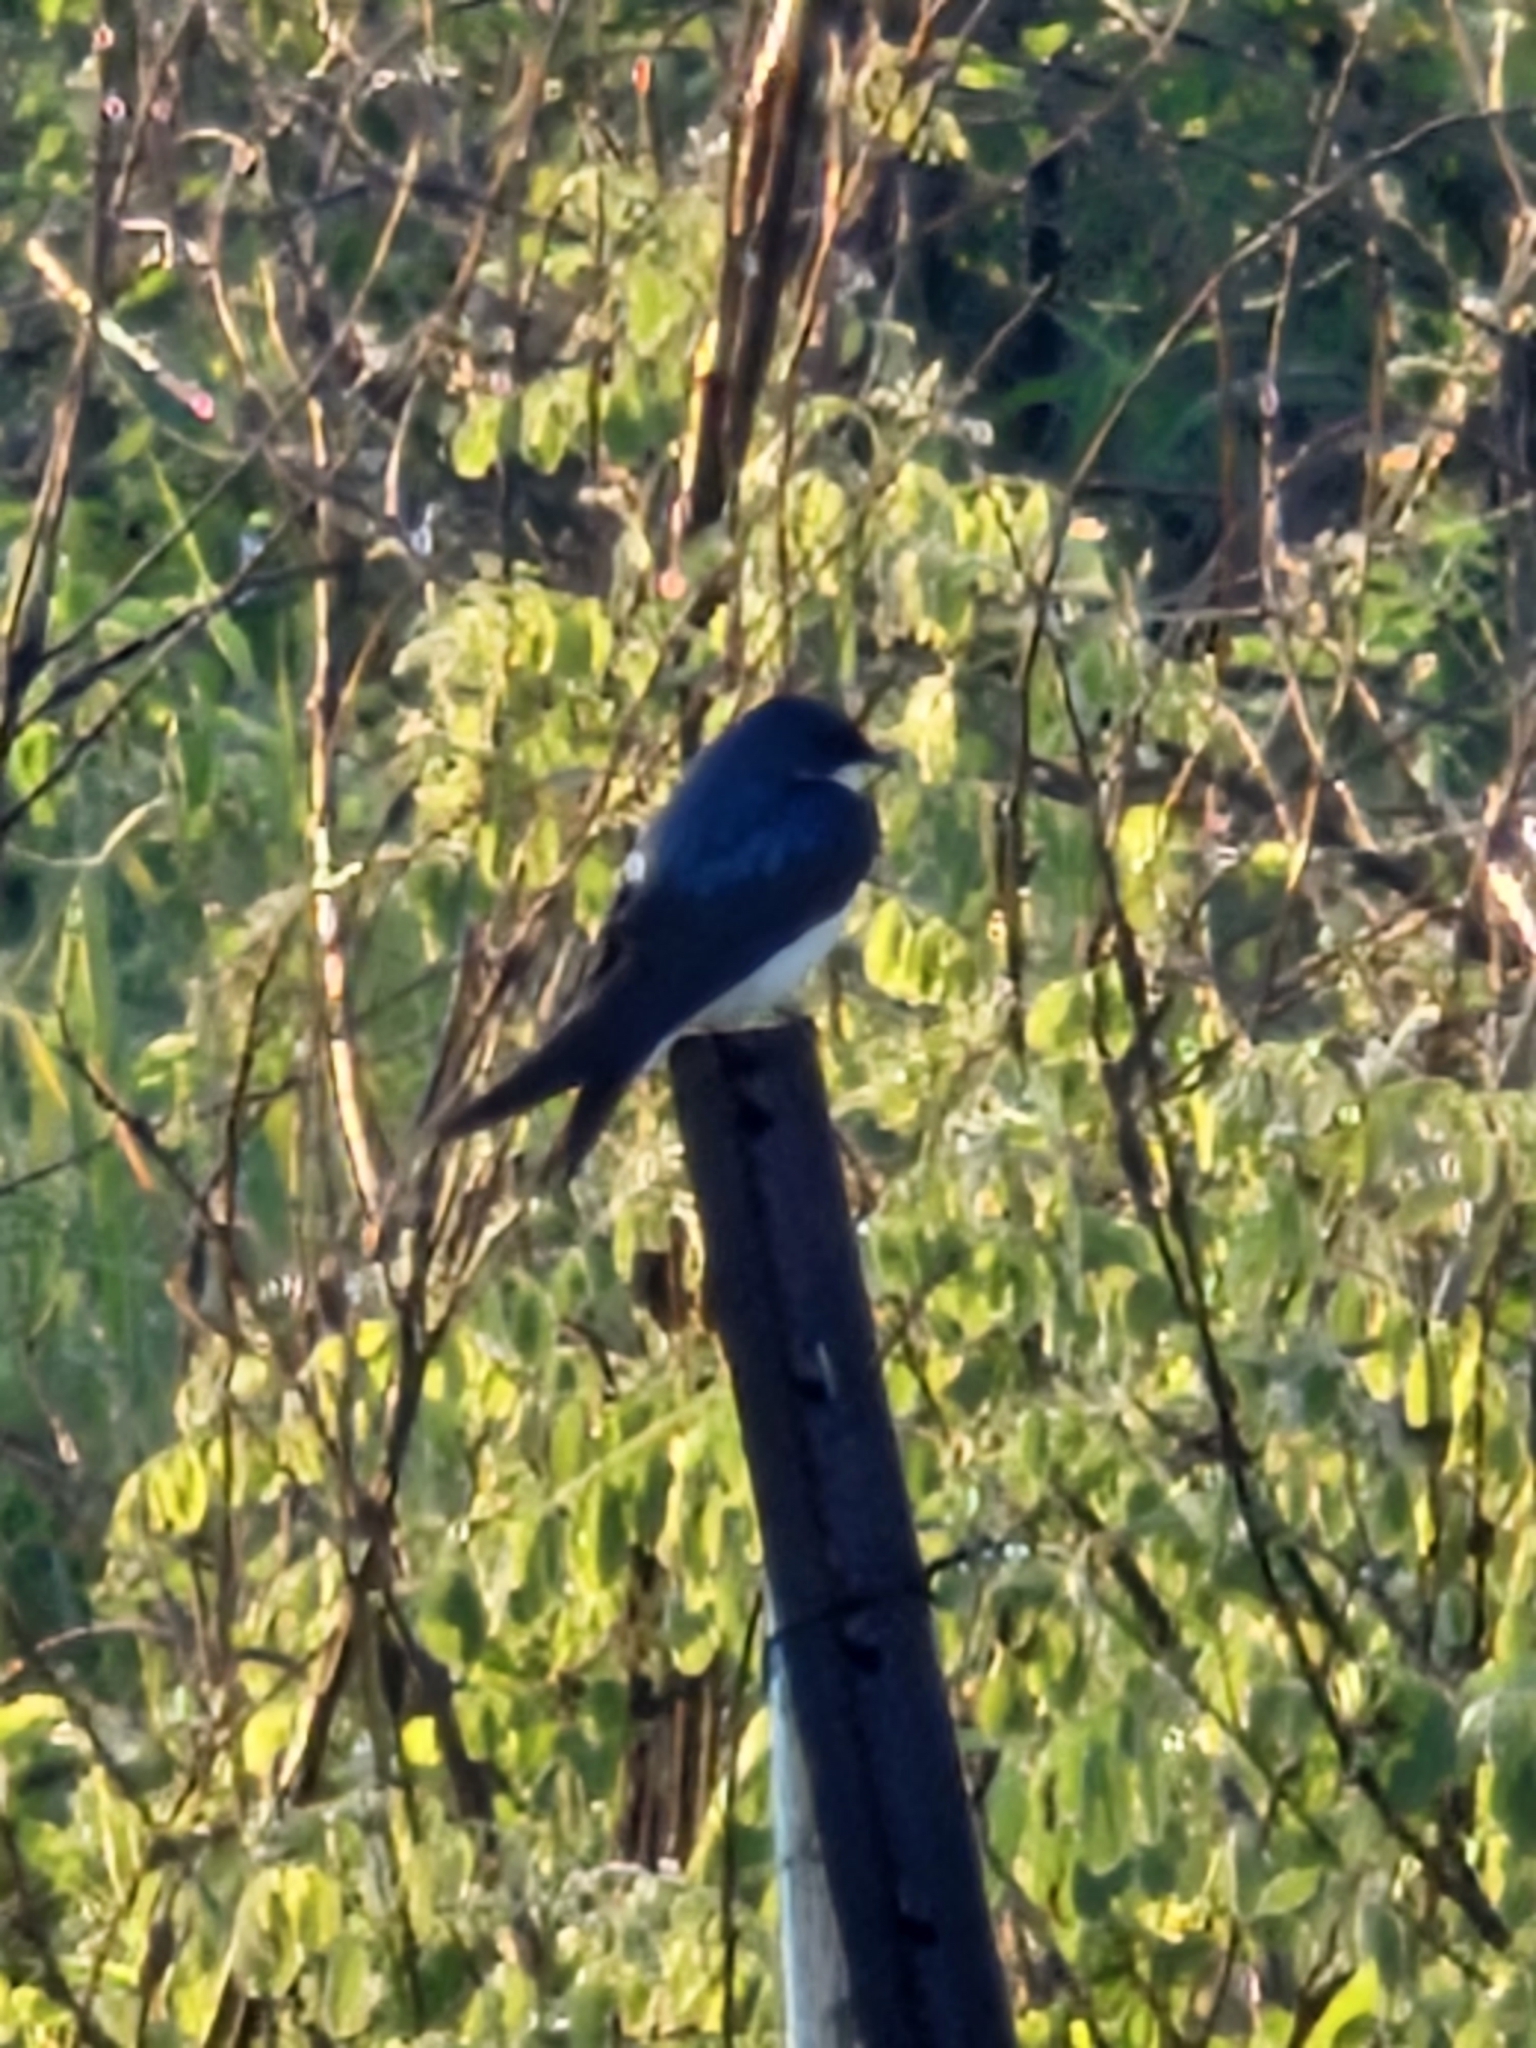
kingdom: Animalia
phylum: Chordata
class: Aves
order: Passeriformes
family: Hirundinidae
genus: Tachycineta
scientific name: Tachycineta bicolor
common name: Tree swallow
